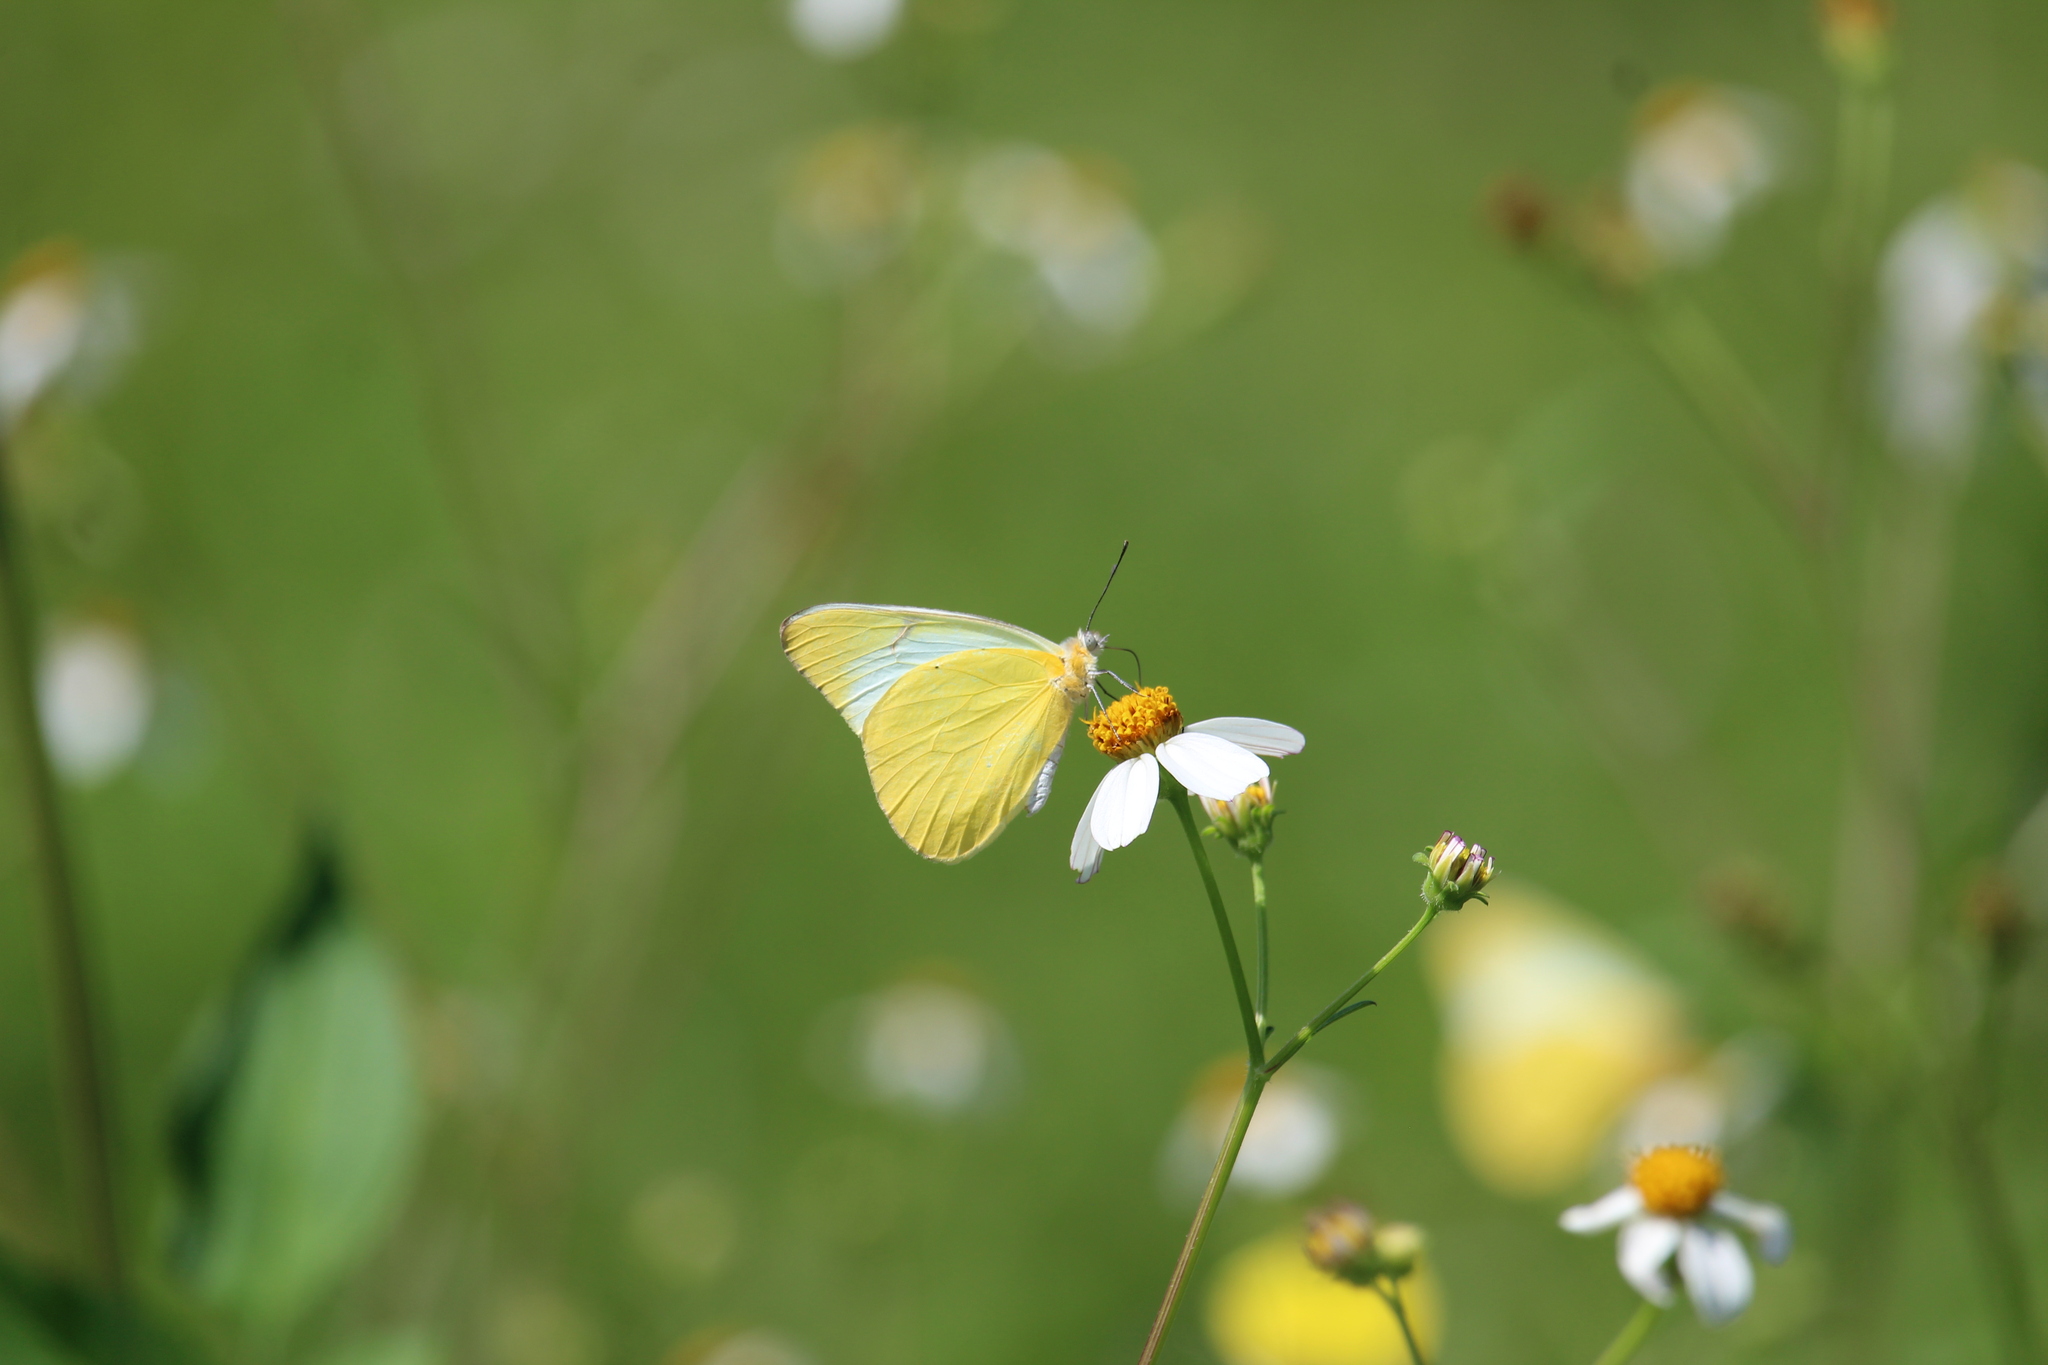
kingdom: Animalia
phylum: Arthropoda
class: Insecta
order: Lepidoptera
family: Pieridae
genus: Melete
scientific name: Melete lycimnia
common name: Common melwhite
